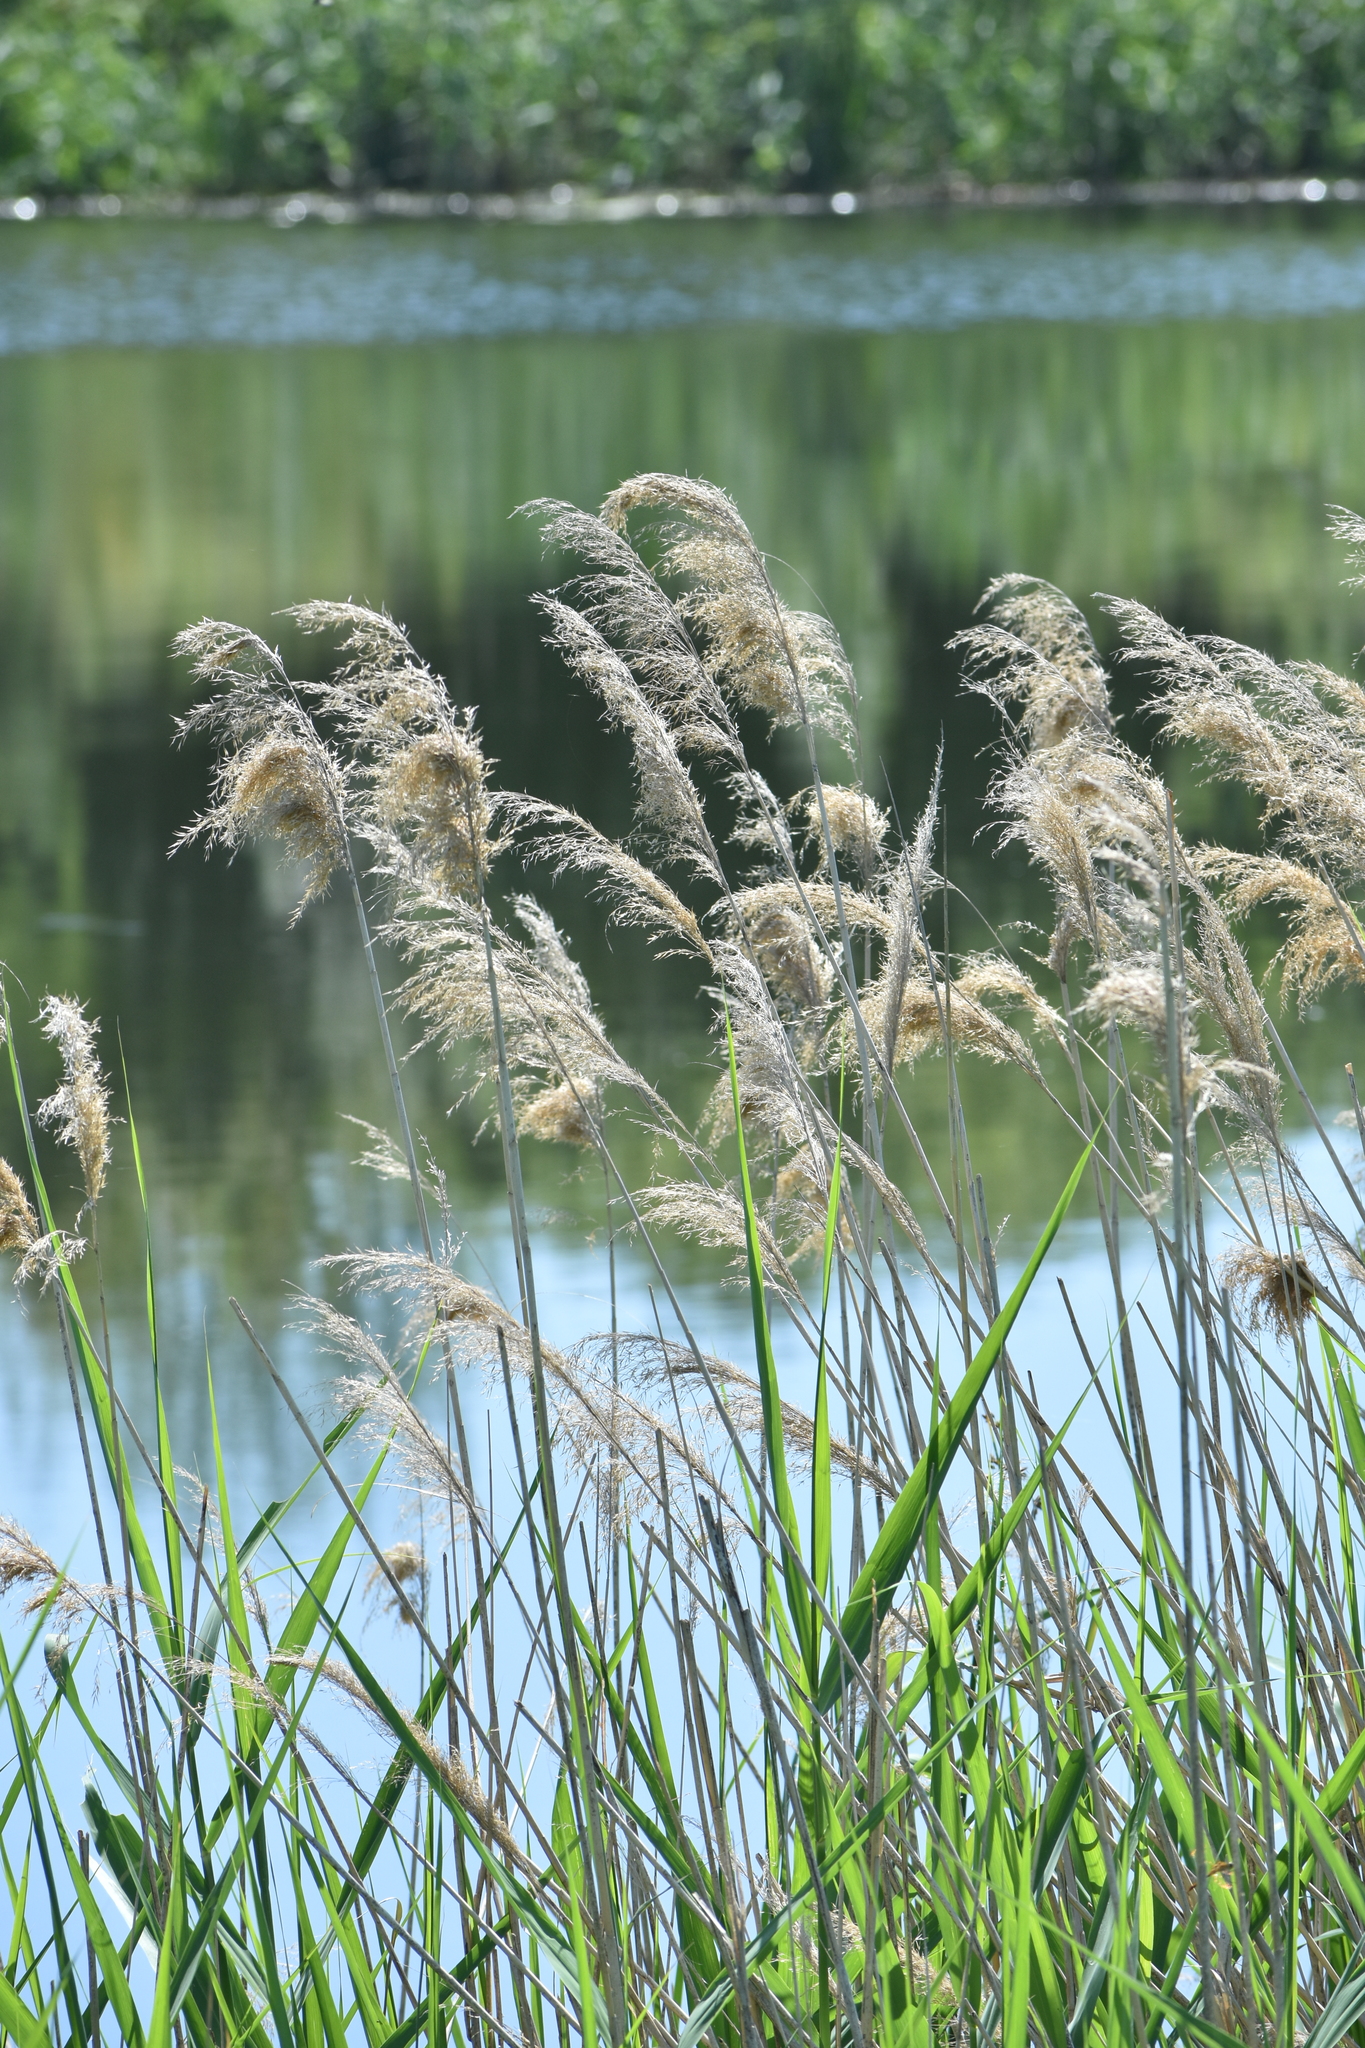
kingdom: Plantae
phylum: Tracheophyta
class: Liliopsida
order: Poales
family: Poaceae
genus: Phragmites
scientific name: Phragmites australis
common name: Common reed
